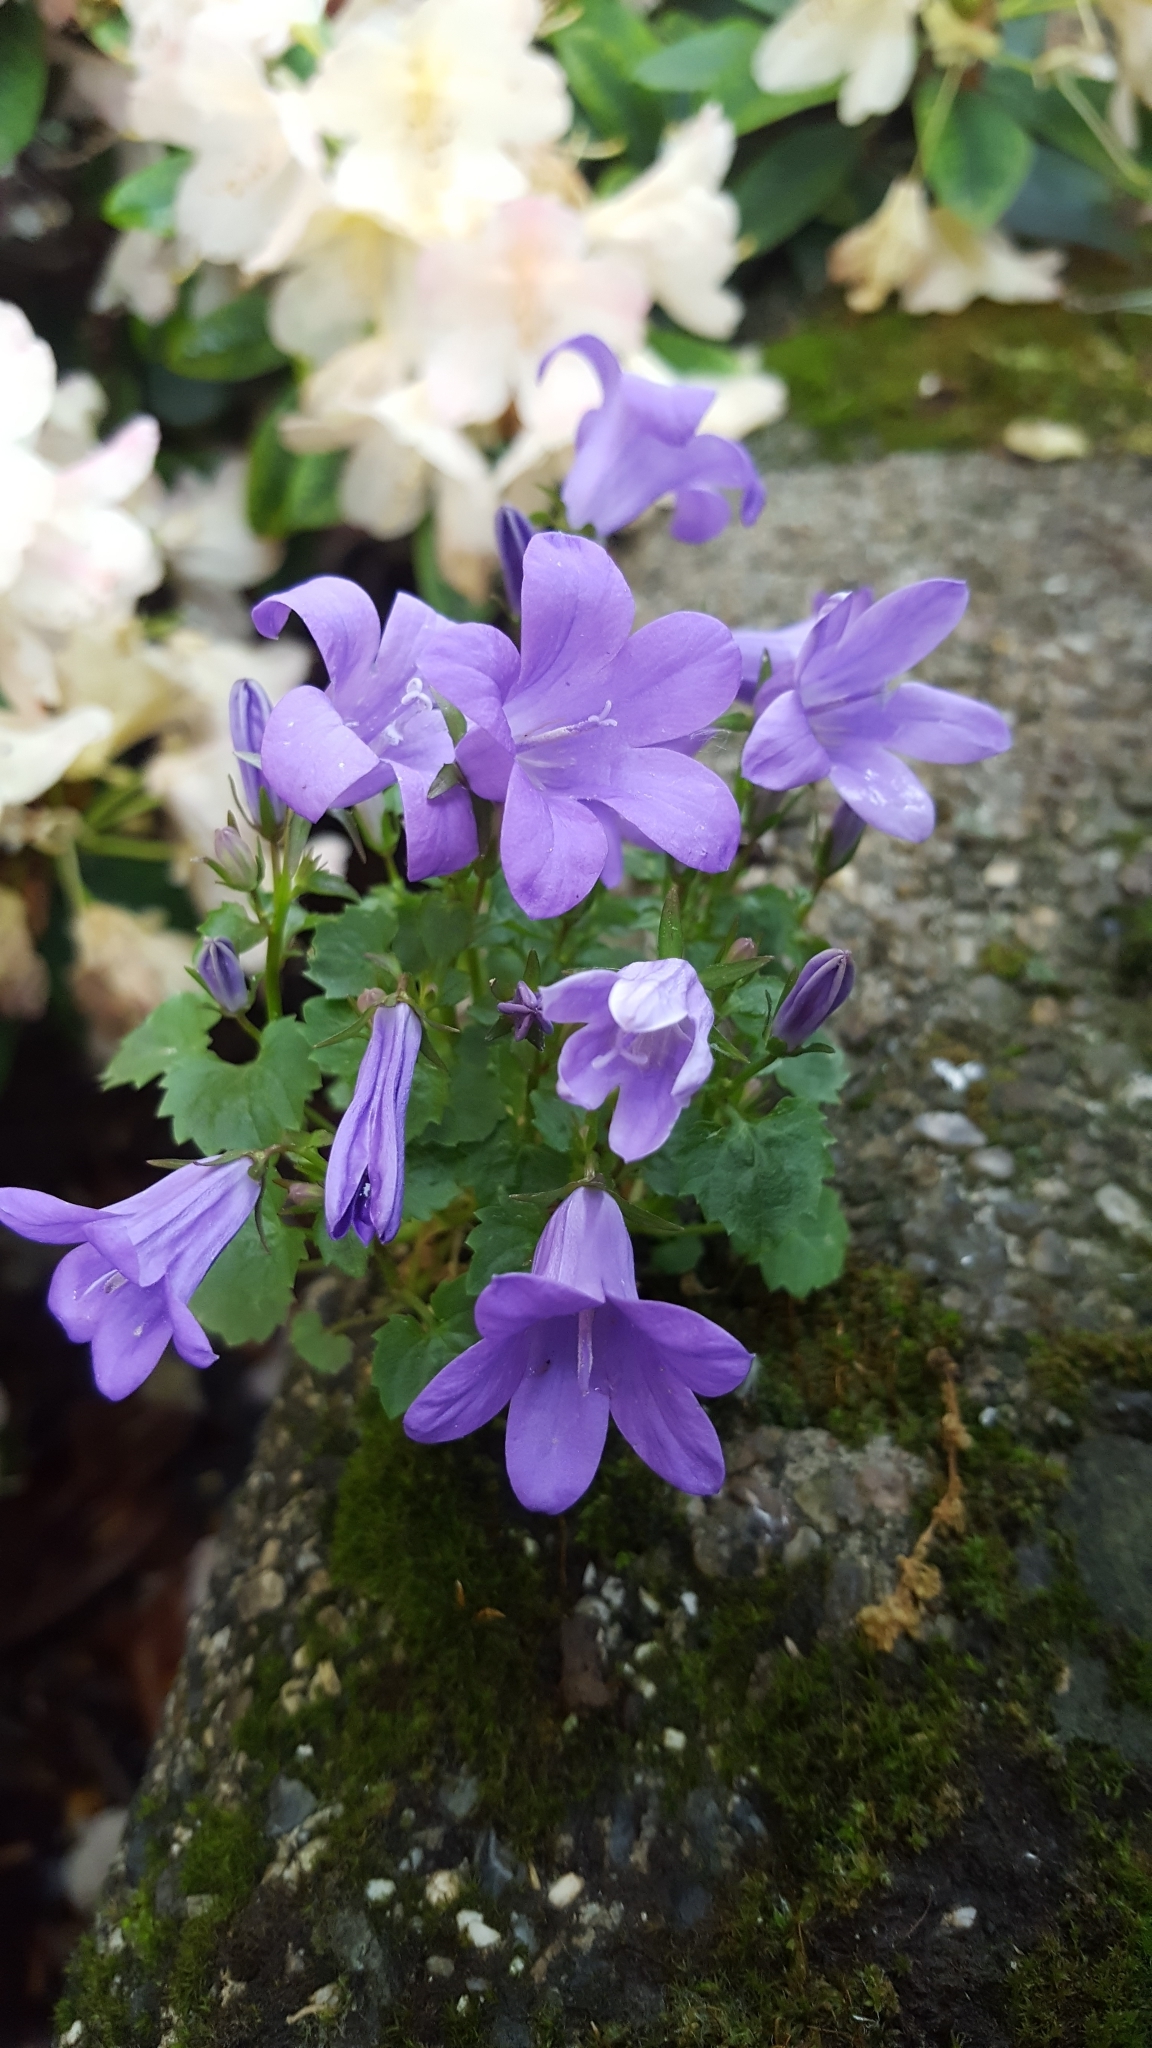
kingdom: Plantae
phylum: Tracheophyta
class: Magnoliopsida
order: Asterales
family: Campanulaceae
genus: Campanula
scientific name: Campanula poscharskyana
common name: Trailing bellflower
